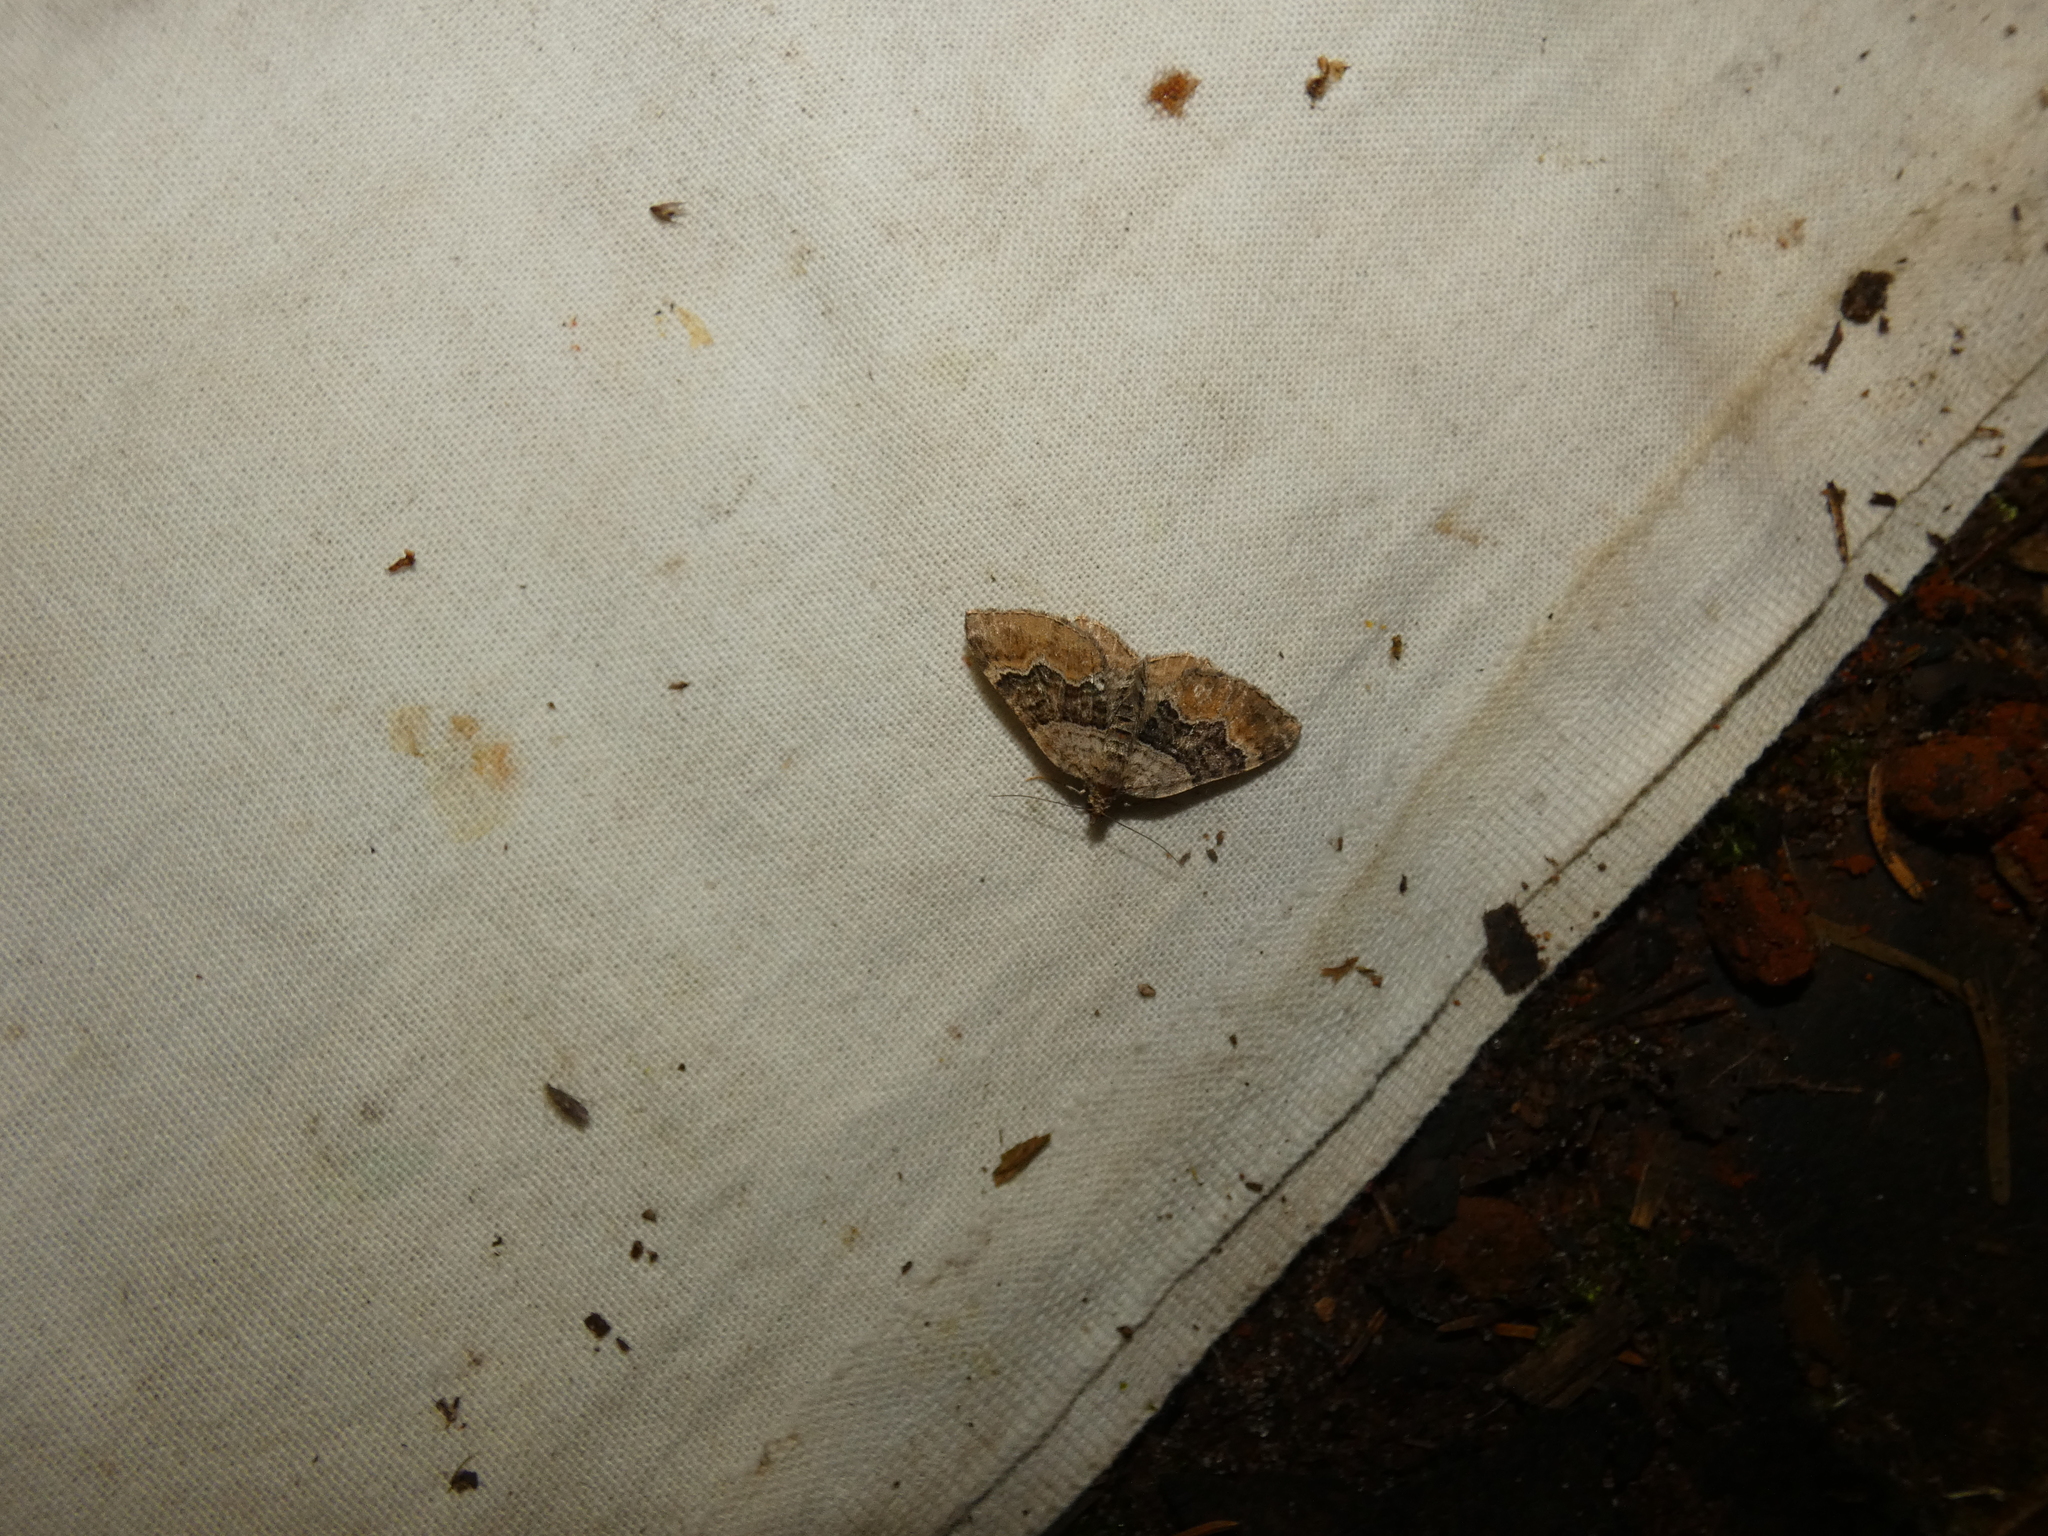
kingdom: Animalia
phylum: Arthropoda
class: Insecta
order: Lepidoptera
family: Geometridae
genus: Xanthorhoe
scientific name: Xanthorhoe quadrifasiata
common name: Large twin-spot carpet
